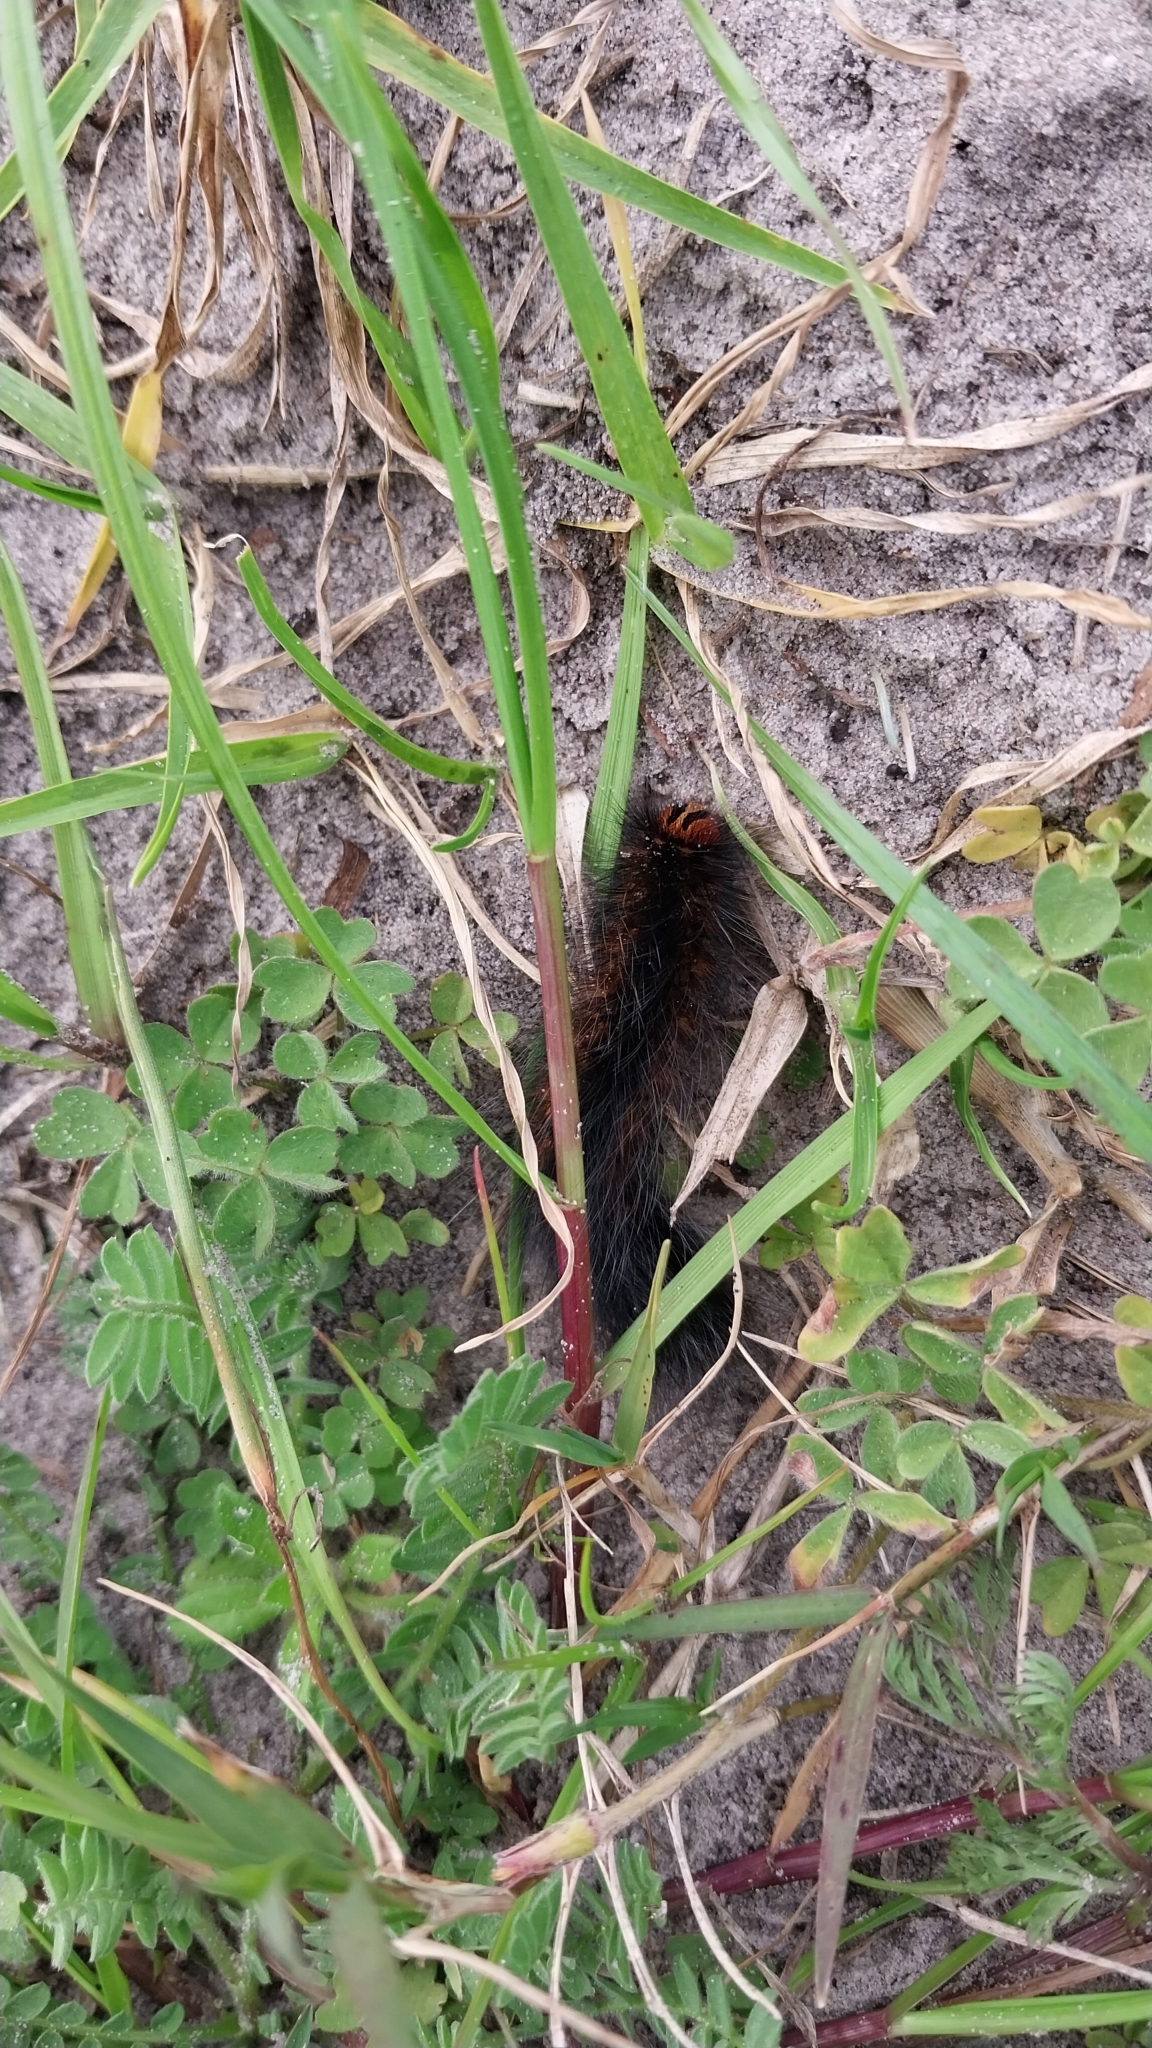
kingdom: Animalia
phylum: Arthropoda
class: Insecta
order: Lepidoptera
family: Lasiocampidae
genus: Mesocelis
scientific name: Mesocelis monticola
